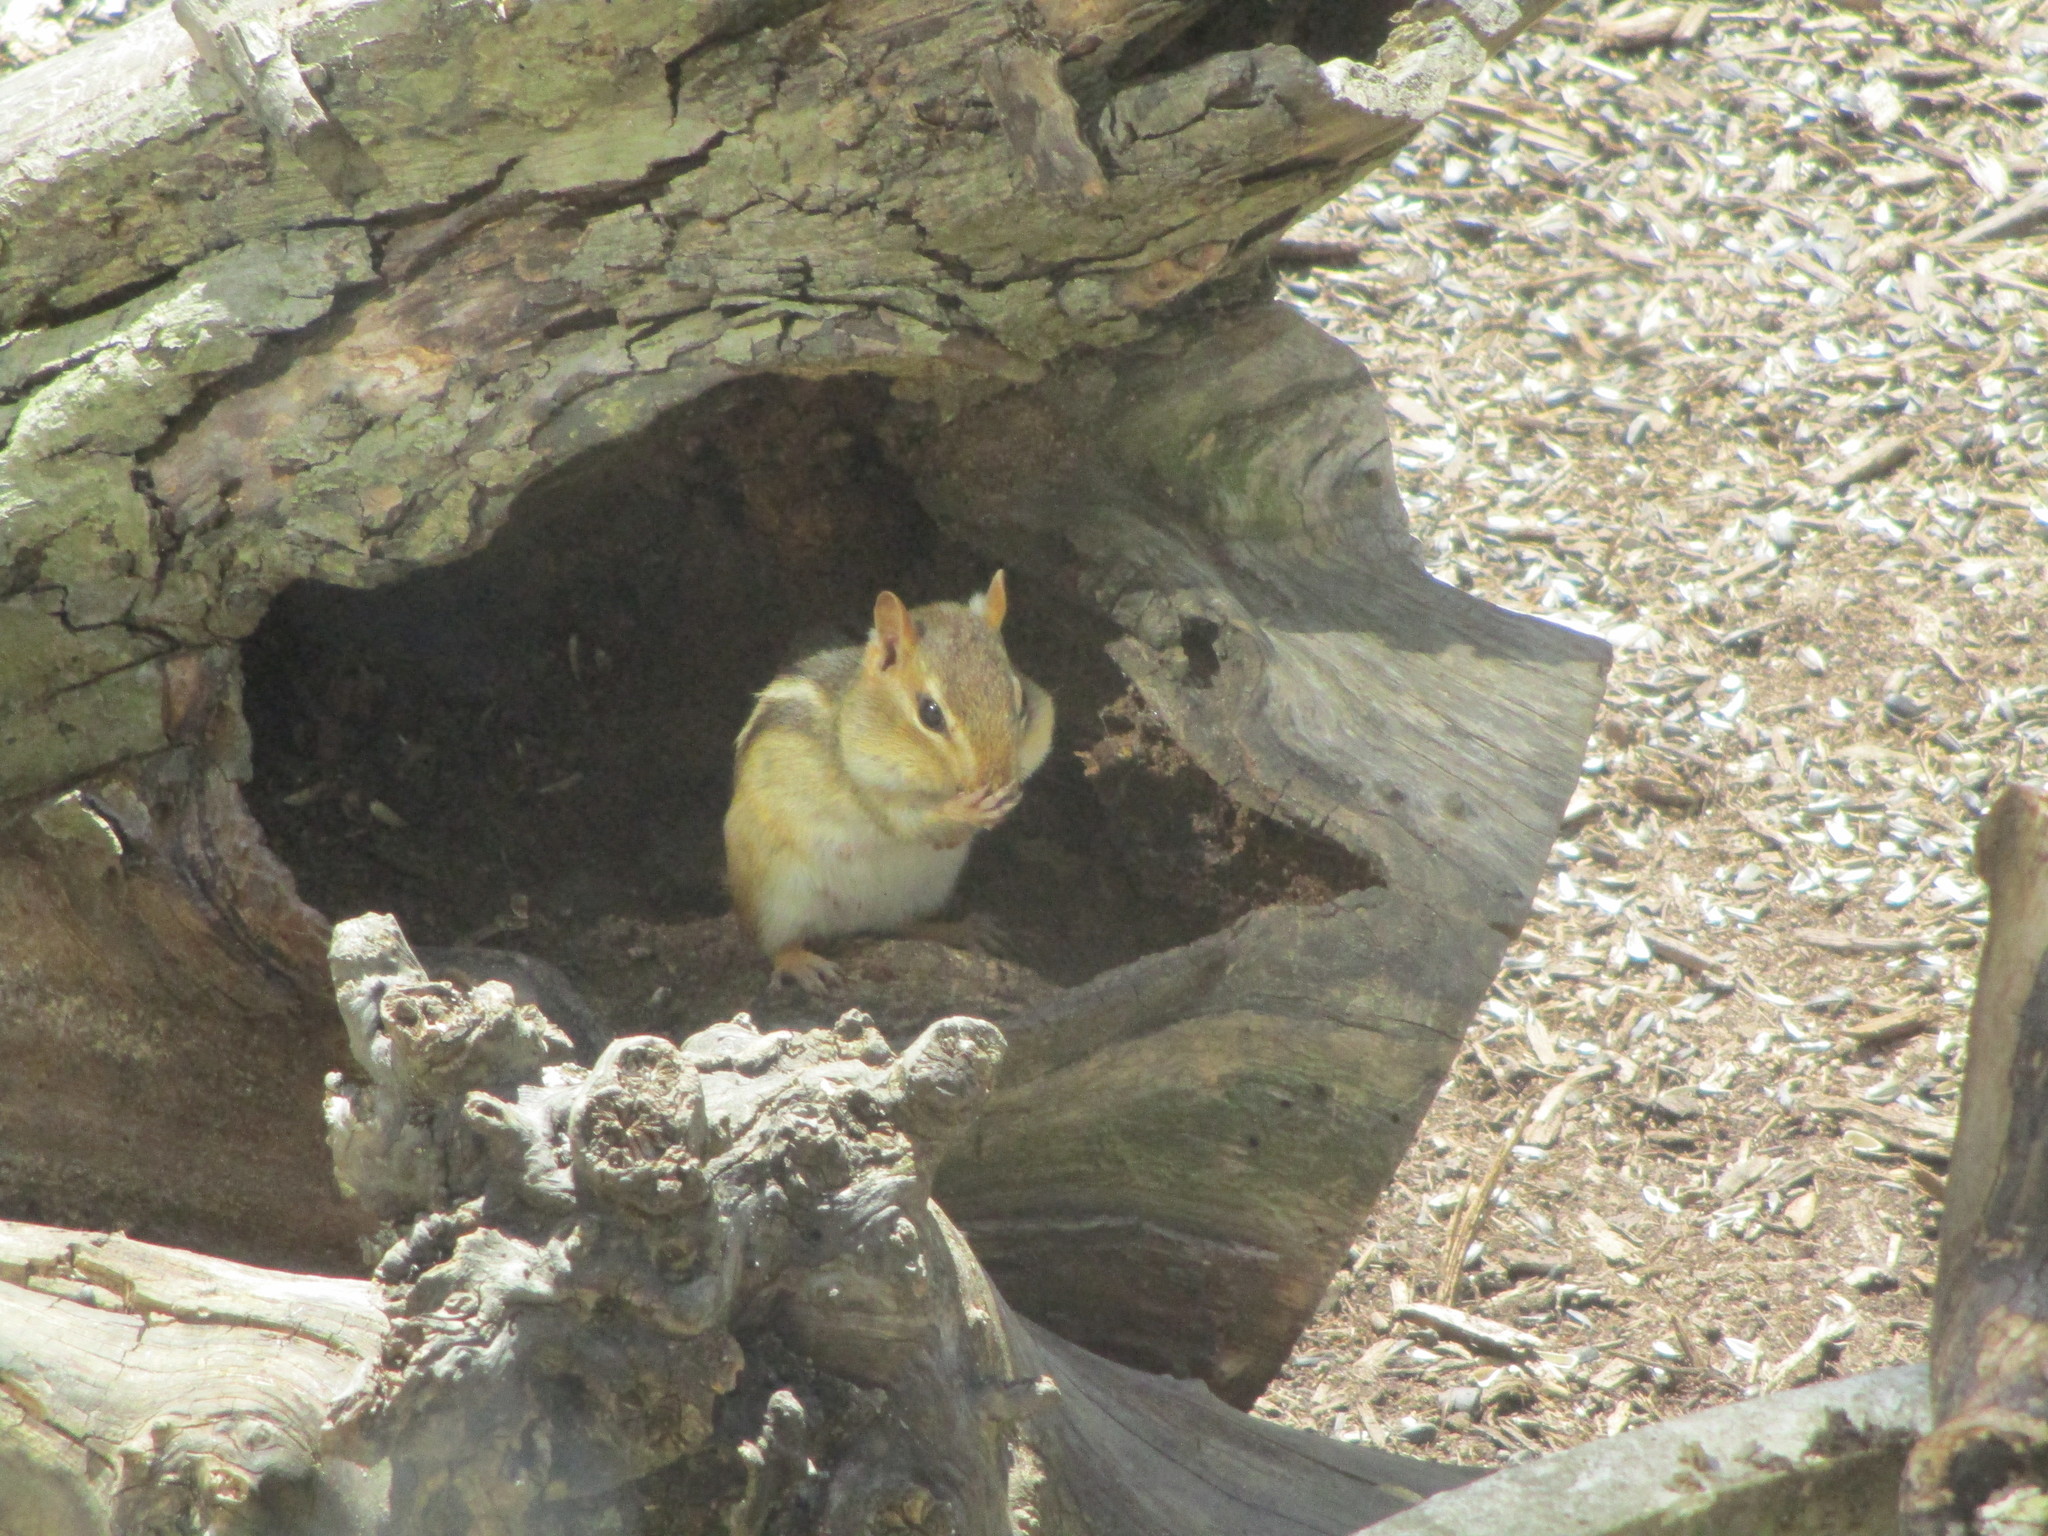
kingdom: Animalia
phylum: Chordata
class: Mammalia
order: Rodentia
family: Sciuridae
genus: Tamias
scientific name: Tamias striatus
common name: Eastern chipmunk
